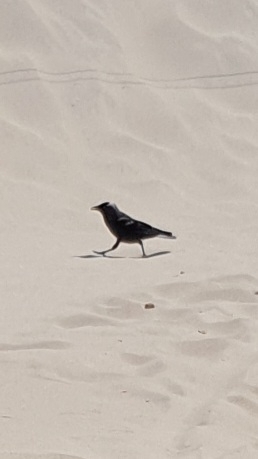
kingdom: Animalia
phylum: Chordata
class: Aves
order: Passeriformes
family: Corvidae
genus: Coloeus
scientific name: Coloeus monedula
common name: Western jackdaw
